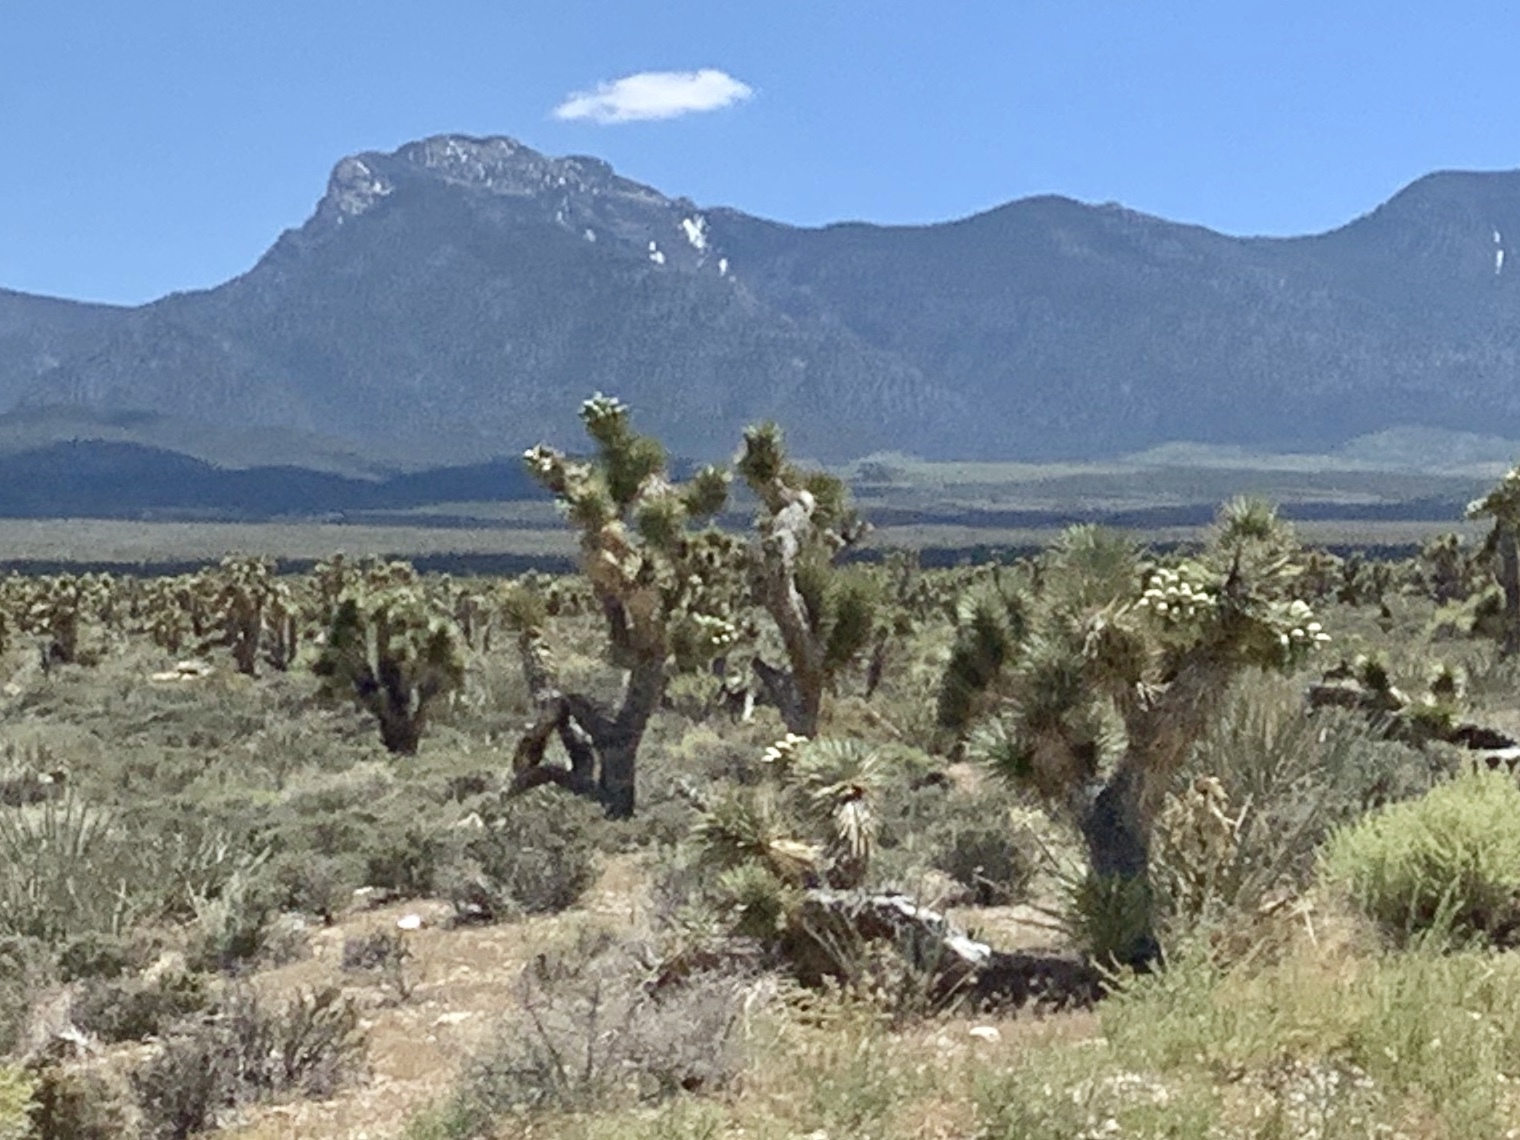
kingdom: Plantae
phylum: Tracheophyta
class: Liliopsida
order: Asparagales
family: Asparagaceae
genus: Yucca
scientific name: Yucca brevifolia
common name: Joshua tree
